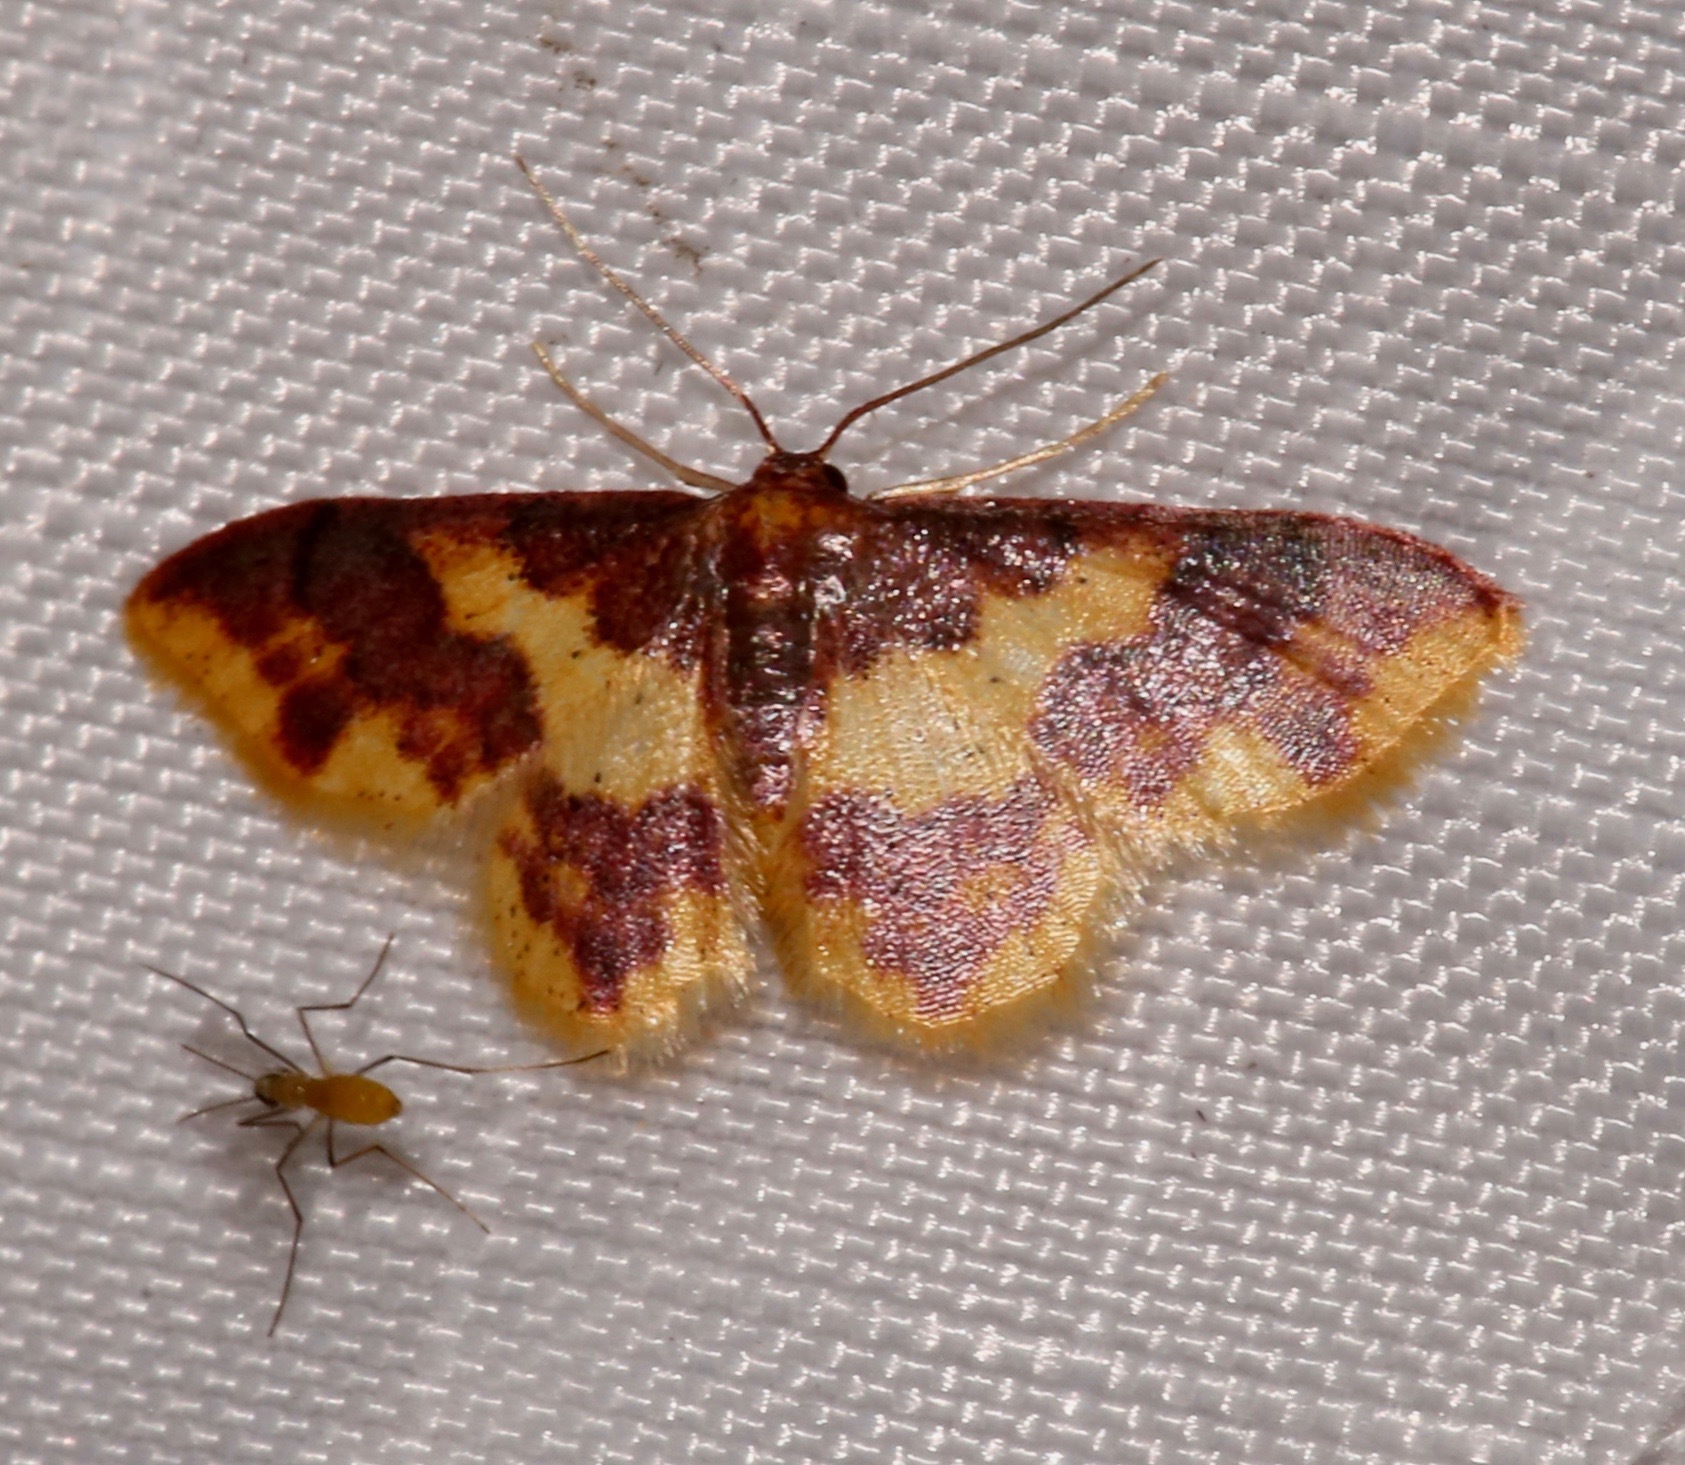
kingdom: Animalia
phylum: Arthropoda
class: Insecta
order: Lepidoptera
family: Geometridae
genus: Lophosis
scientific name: Lophosis labeculata
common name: Stained lophosis moth
